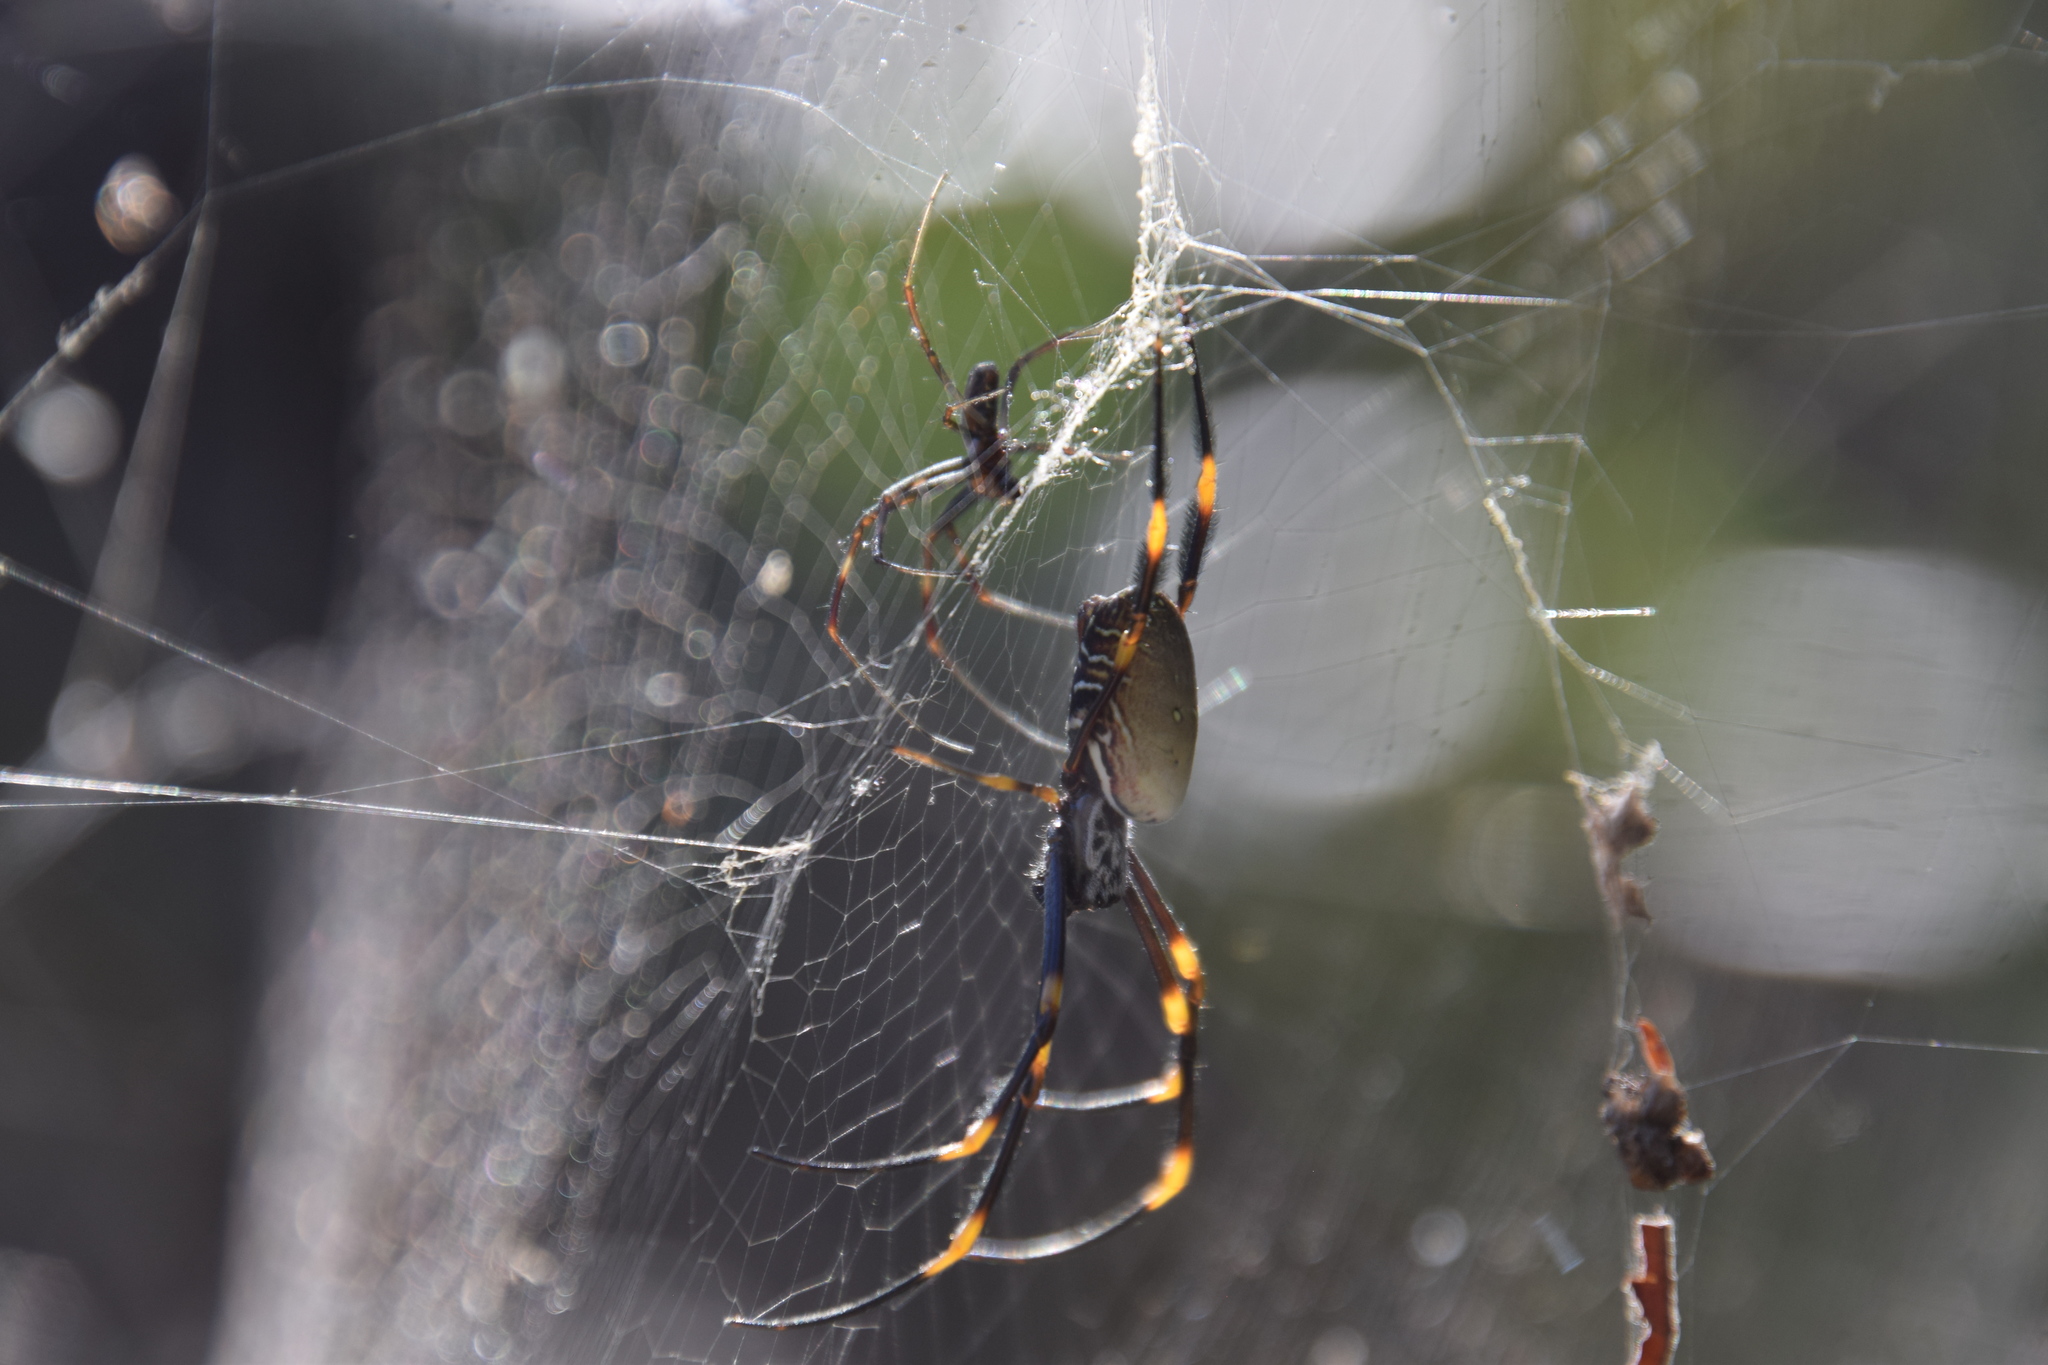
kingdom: Animalia
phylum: Arthropoda
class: Arachnida
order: Araneae
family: Araneidae
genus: Trichonephila
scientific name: Trichonephila plumipes
